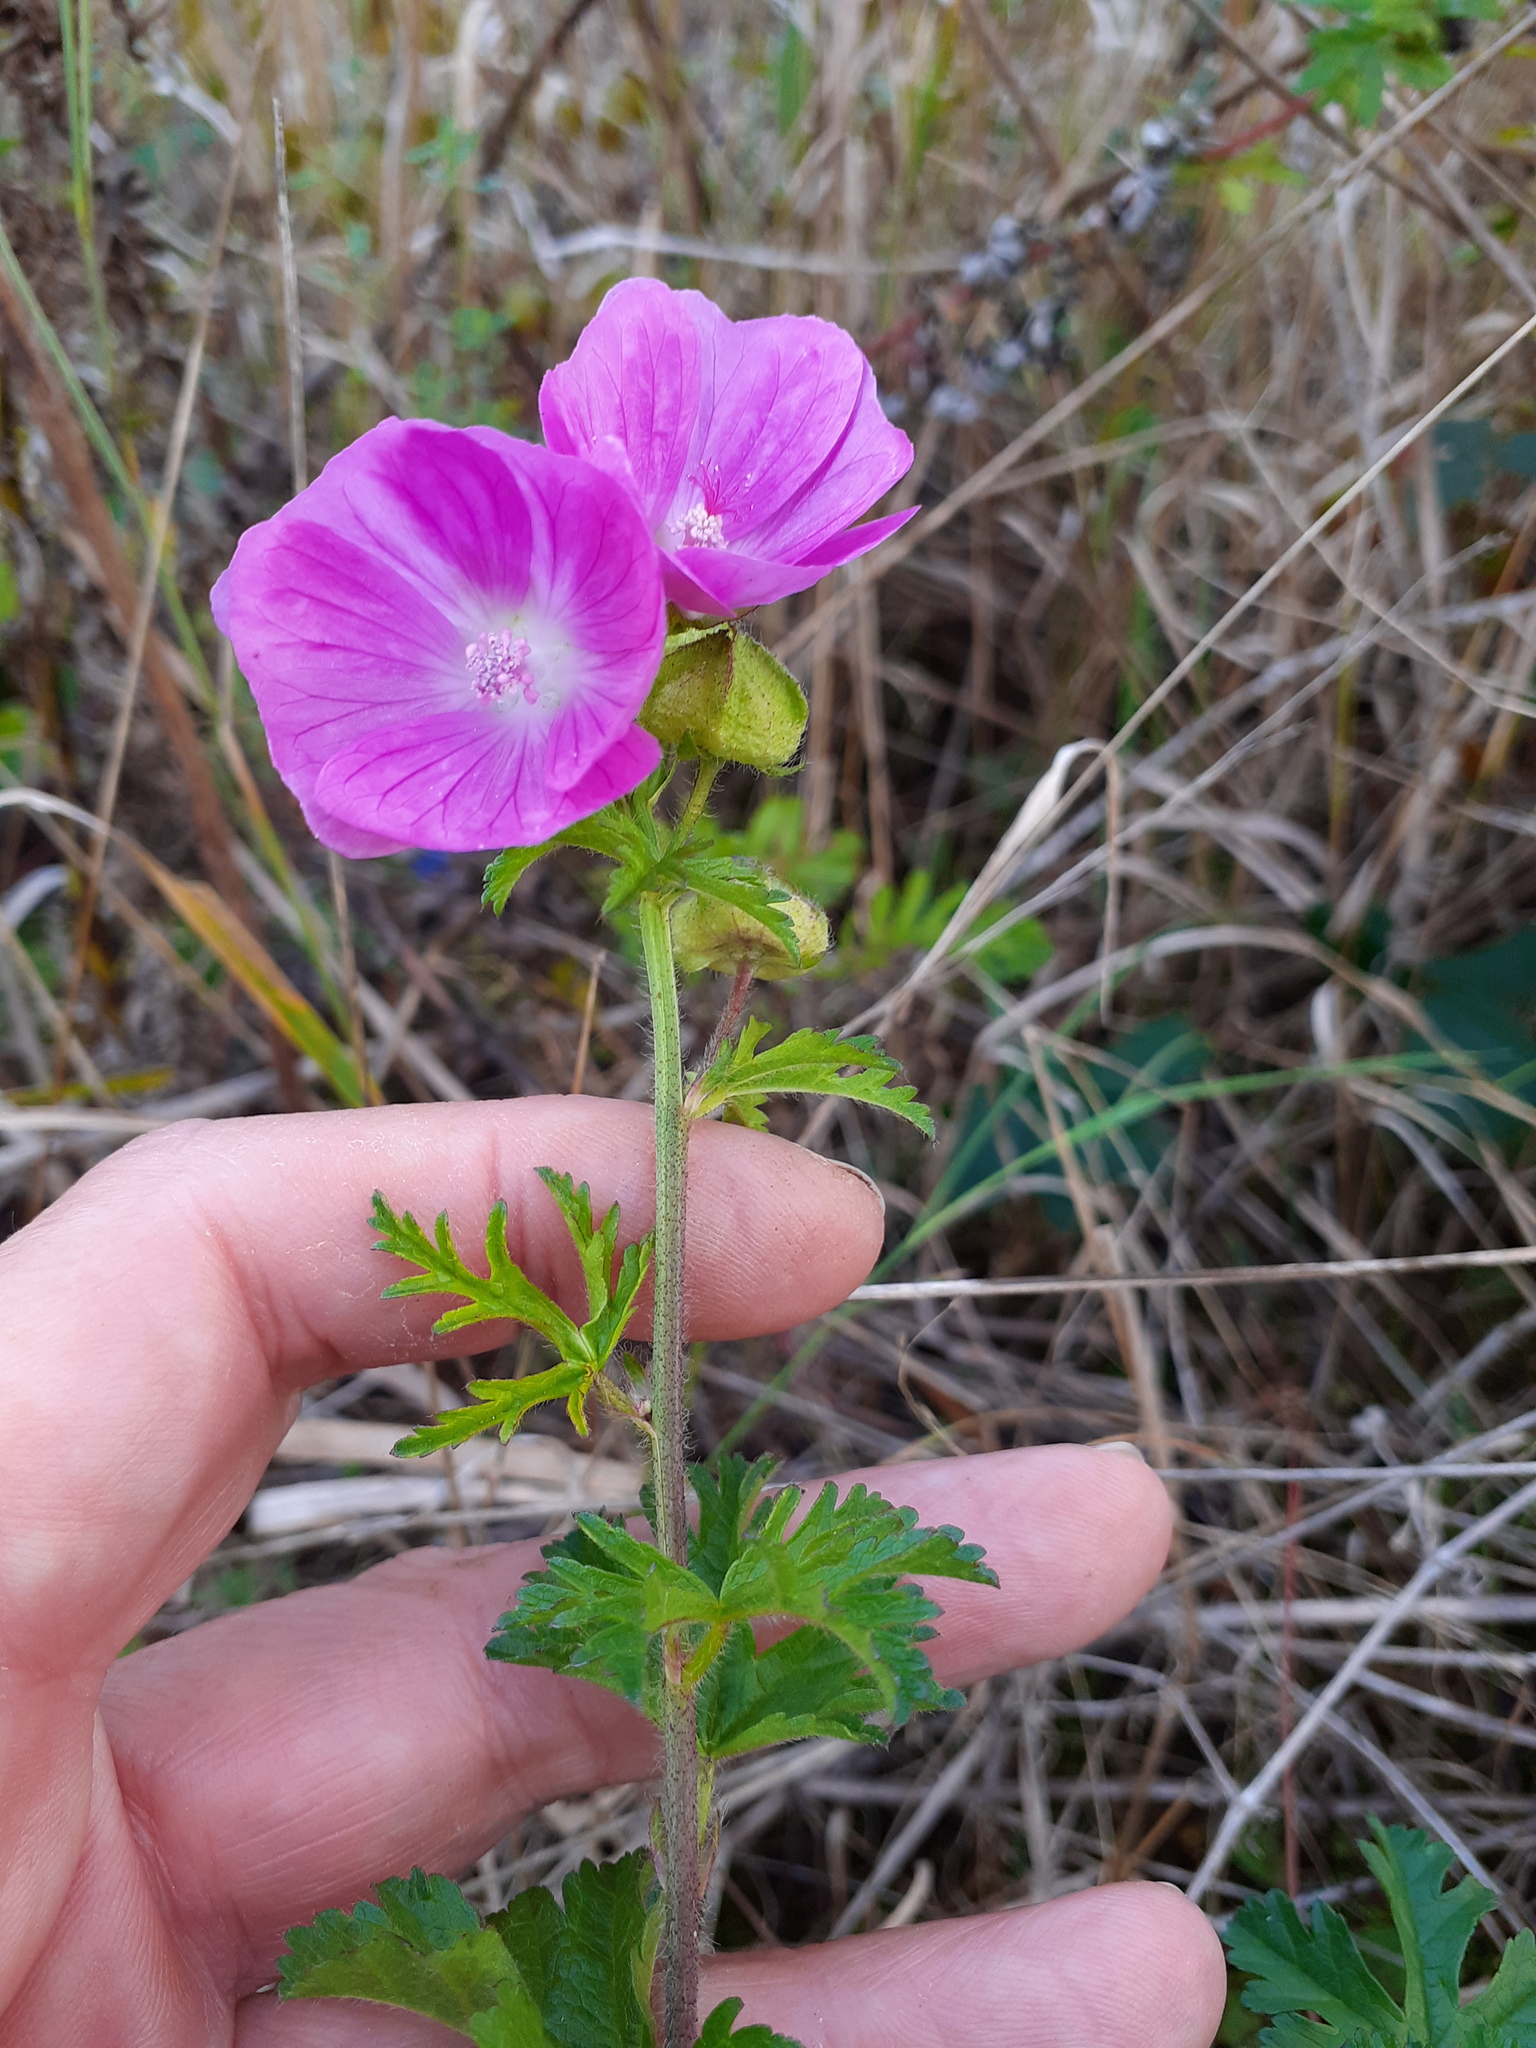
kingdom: Plantae
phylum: Tracheophyta
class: Magnoliopsida
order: Malvales
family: Malvaceae
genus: Malva
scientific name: Malva moschata
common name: Musk mallow
